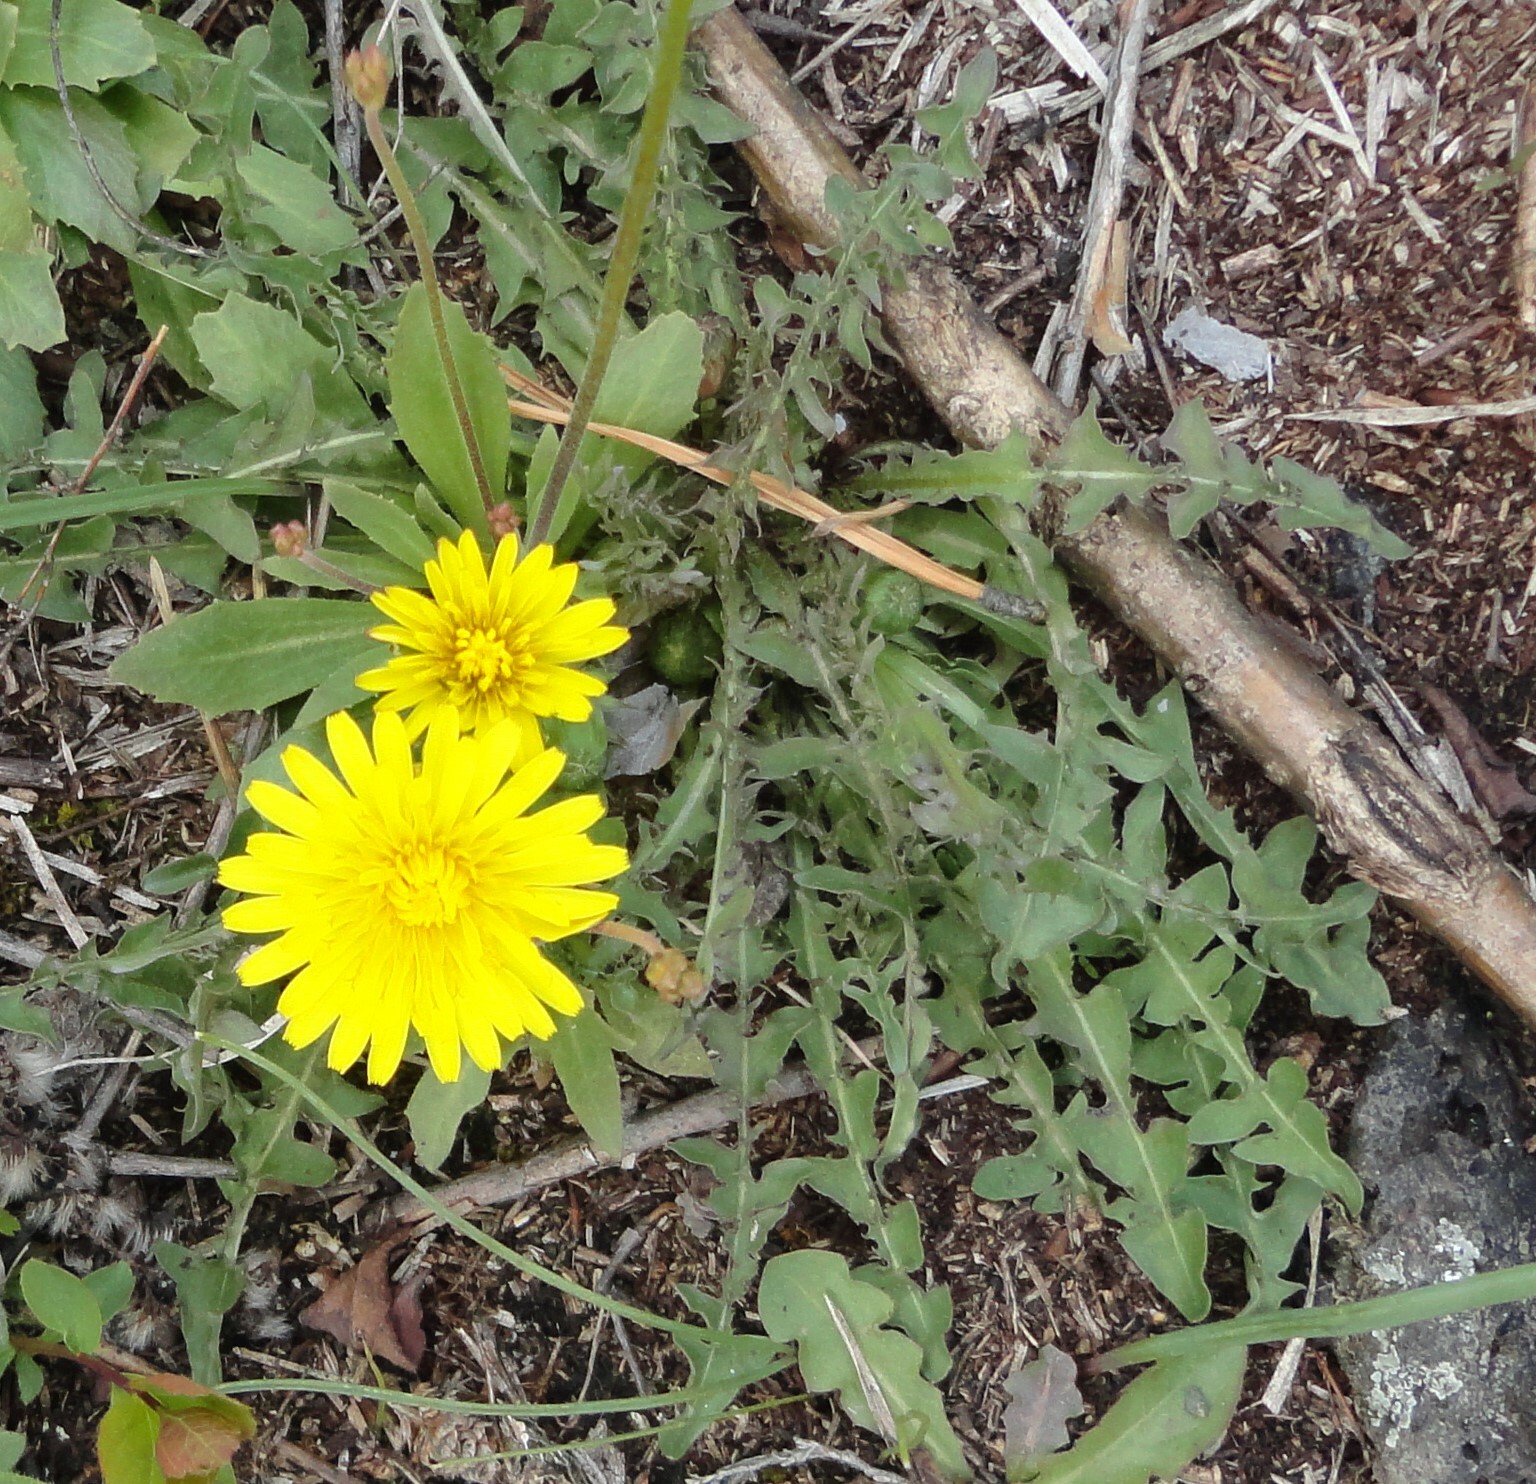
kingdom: Plantae
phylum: Tracheophyta
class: Magnoliopsida
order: Asterales
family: Asteraceae
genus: Taraxacum
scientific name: Taraxacum officinale
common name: Common dandelion
